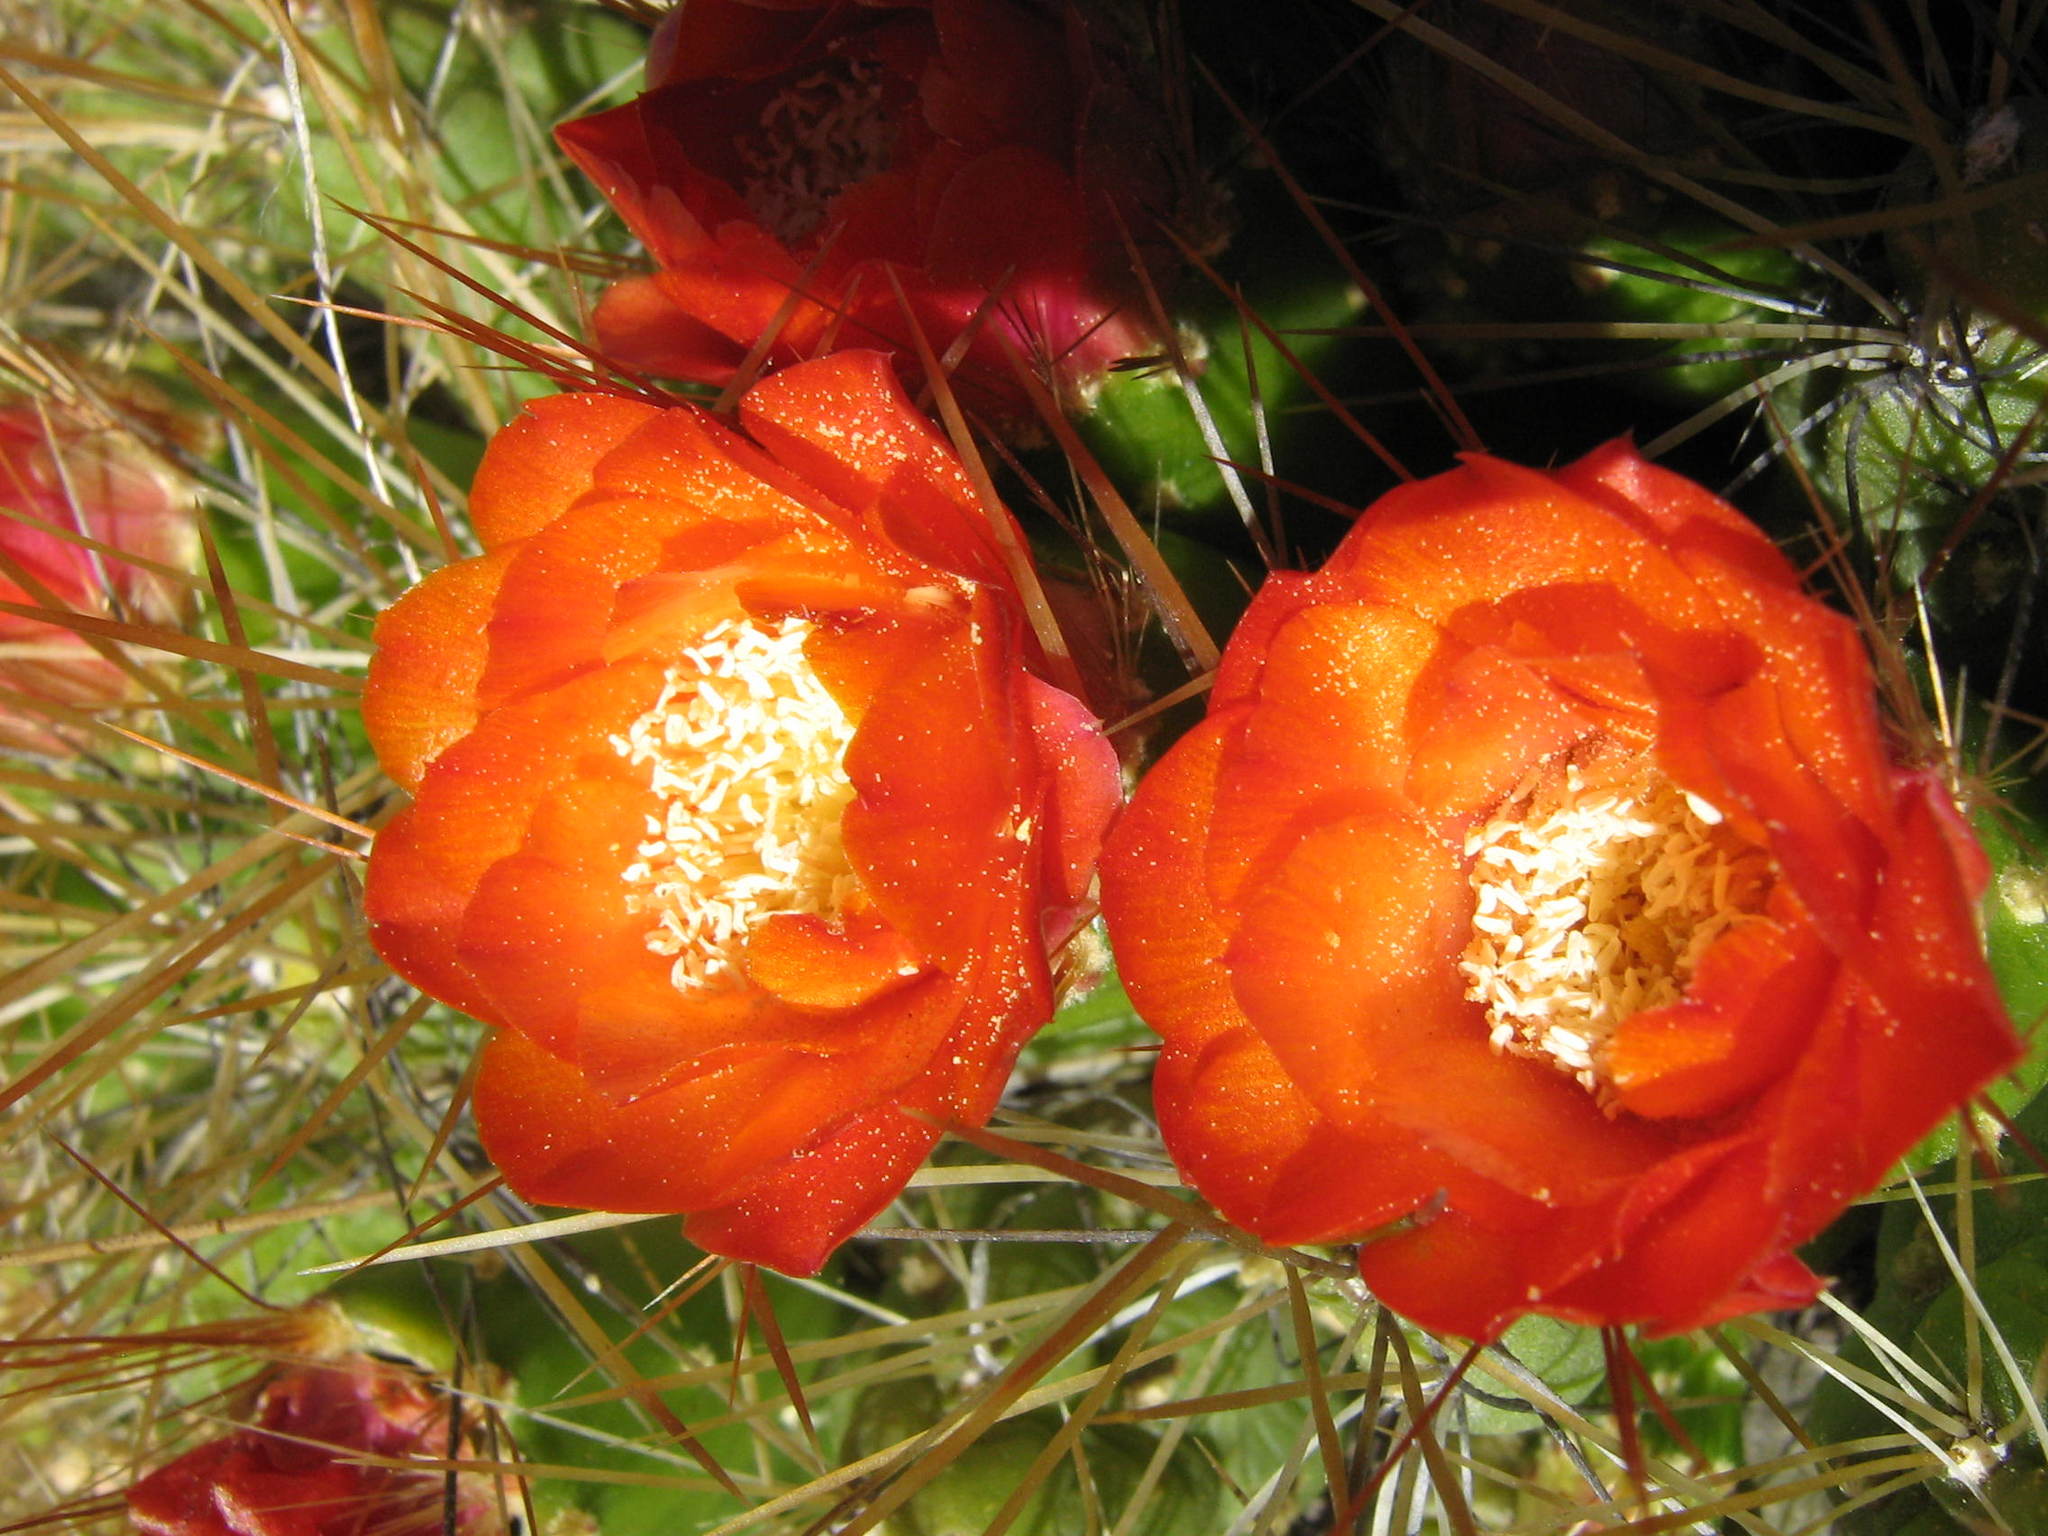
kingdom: Plantae
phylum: Tracheophyta
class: Magnoliopsida
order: Caryophyllales
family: Cactaceae
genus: Cumulopuntia
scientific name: Cumulopuntia glomerata
